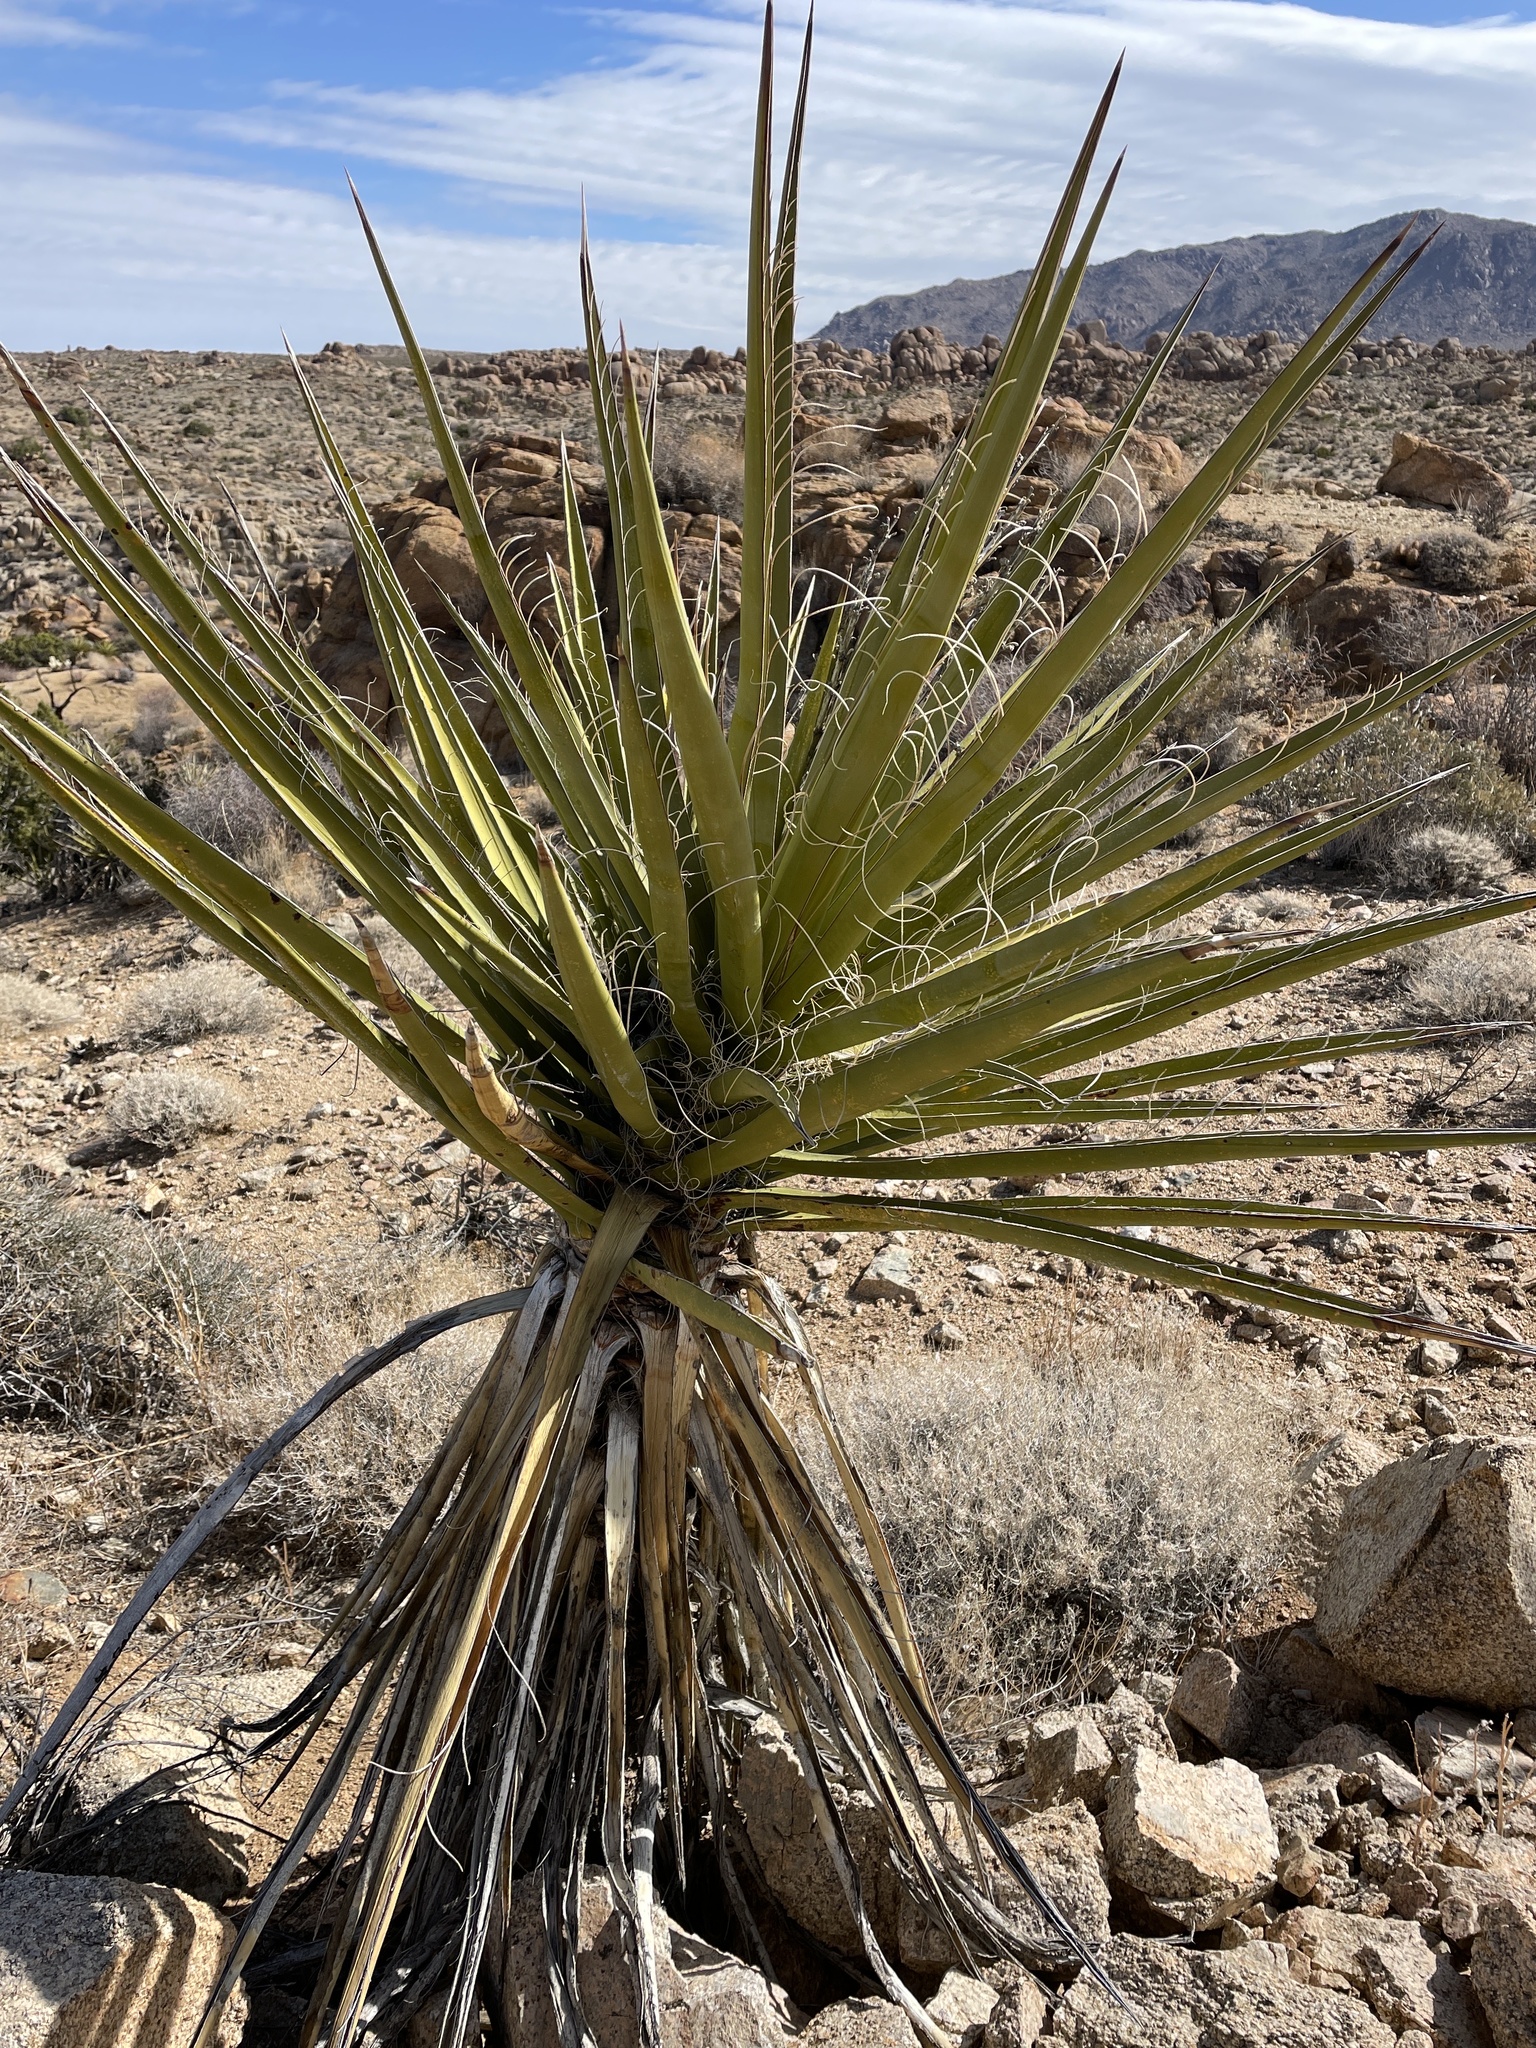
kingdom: Plantae
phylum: Tracheophyta
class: Liliopsida
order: Asparagales
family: Asparagaceae
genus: Yucca
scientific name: Yucca schidigera
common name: Mojave yucca
